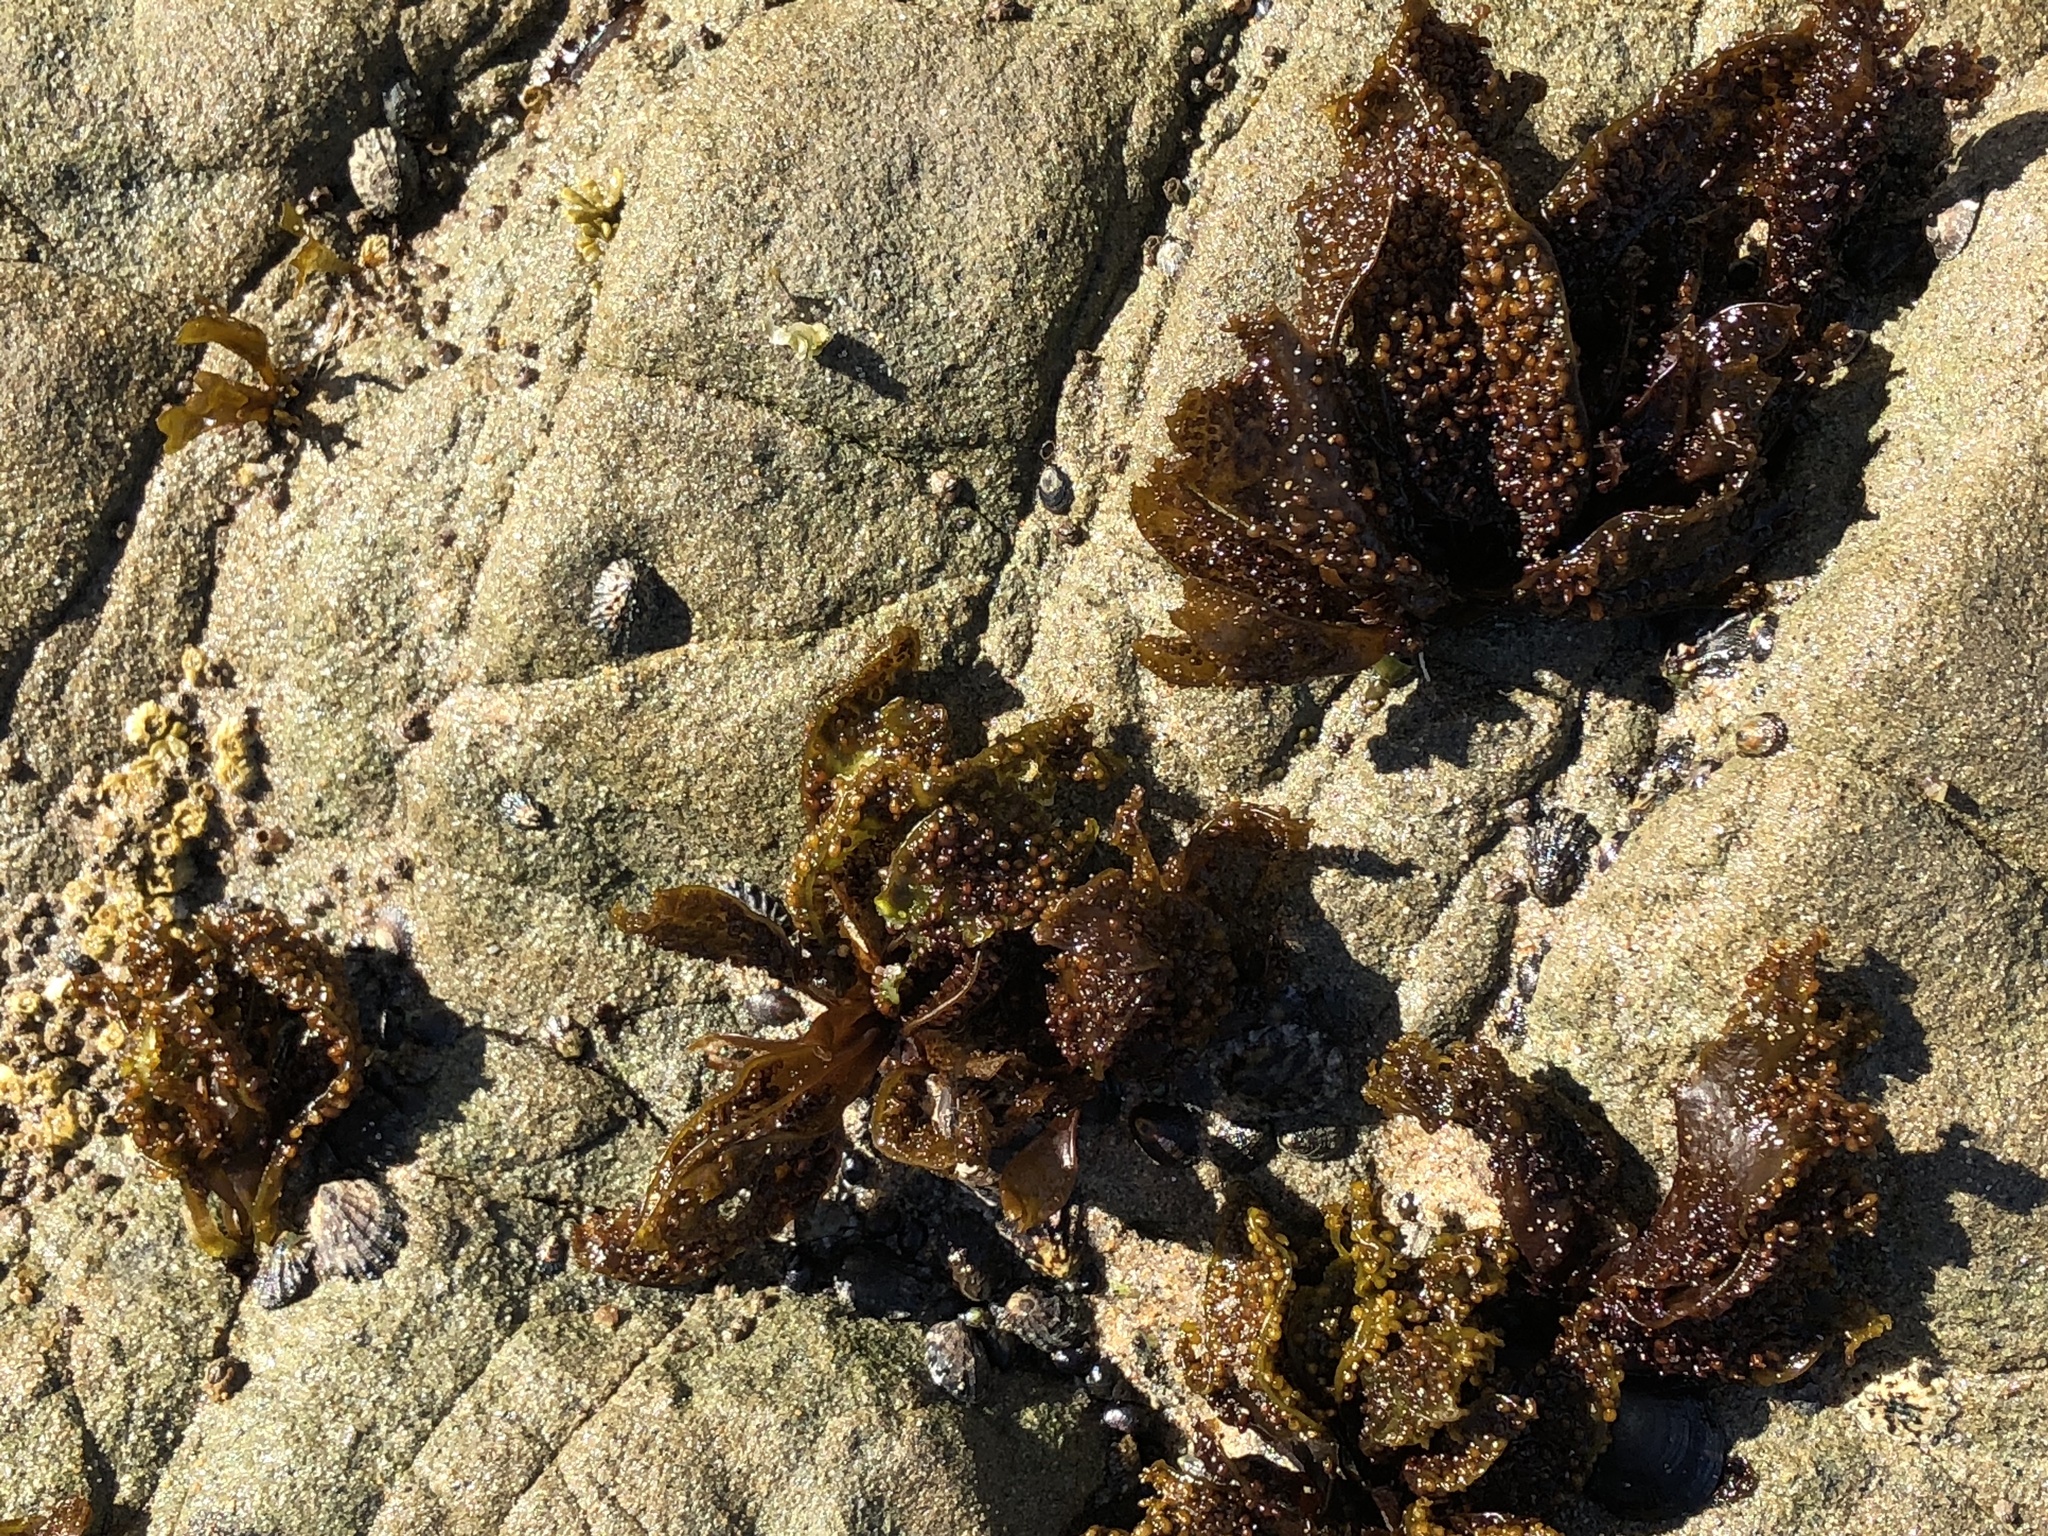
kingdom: Plantae
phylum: Rhodophyta
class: Florideophyceae
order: Gigartinales
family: Phyllophoraceae
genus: Mastocarpus
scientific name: Mastocarpus papillatus
